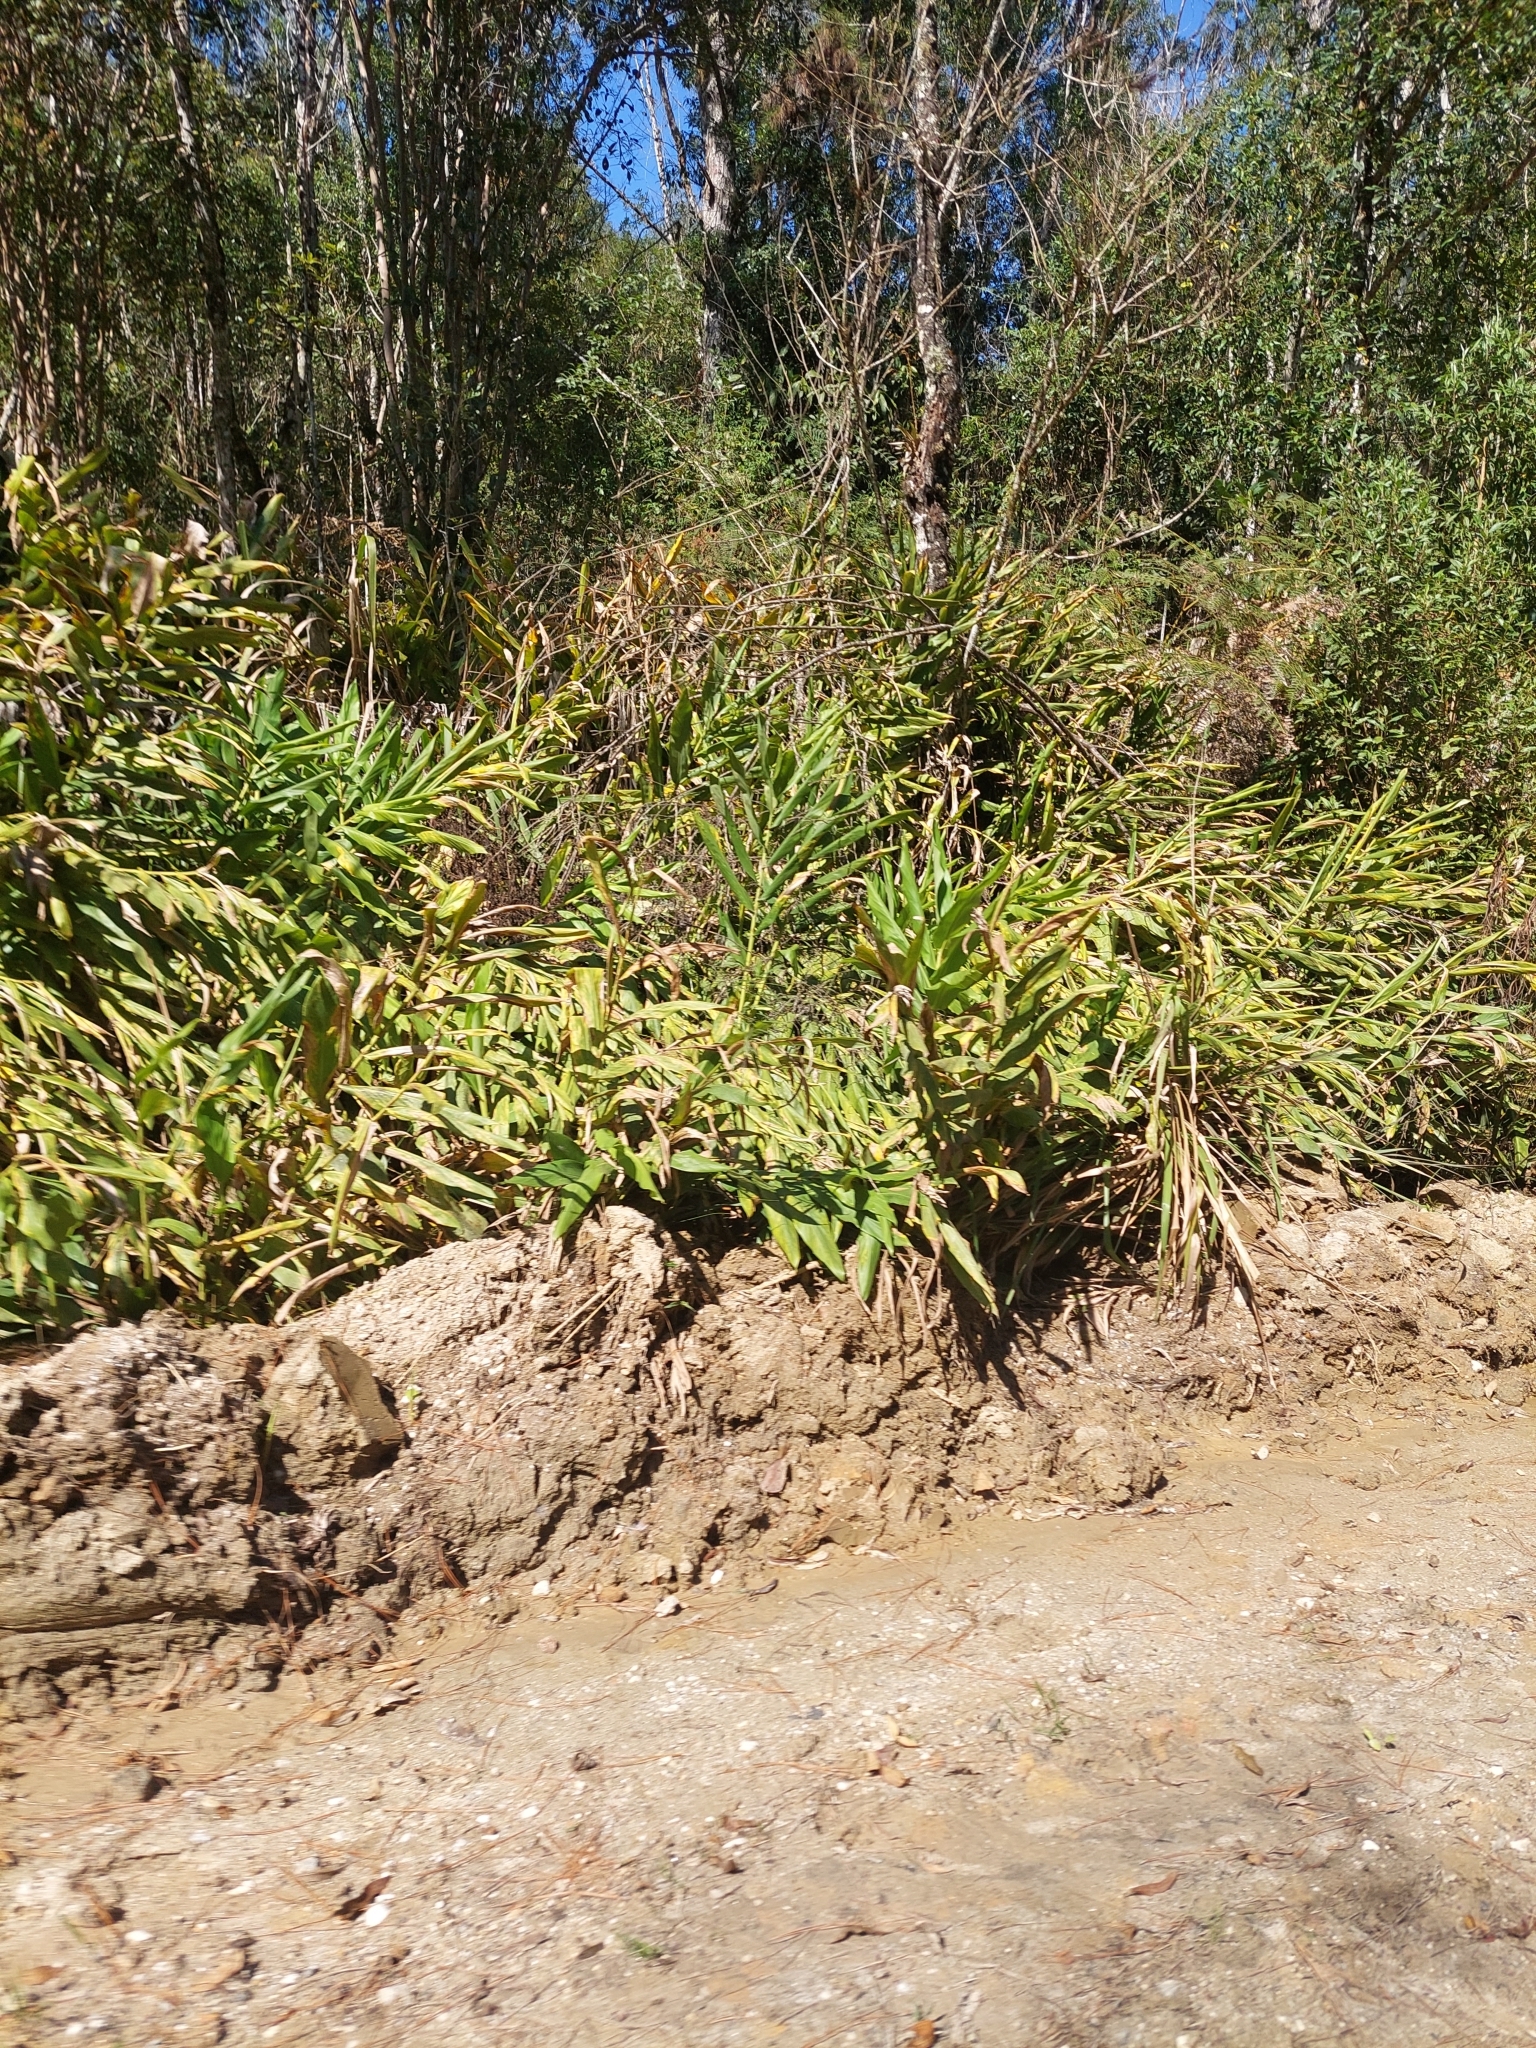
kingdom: Plantae
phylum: Tracheophyta
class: Liliopsida
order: Zingiberales
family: Zingiberaceae
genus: Hedychium
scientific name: Hedychium coronarium
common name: White garland-lily
